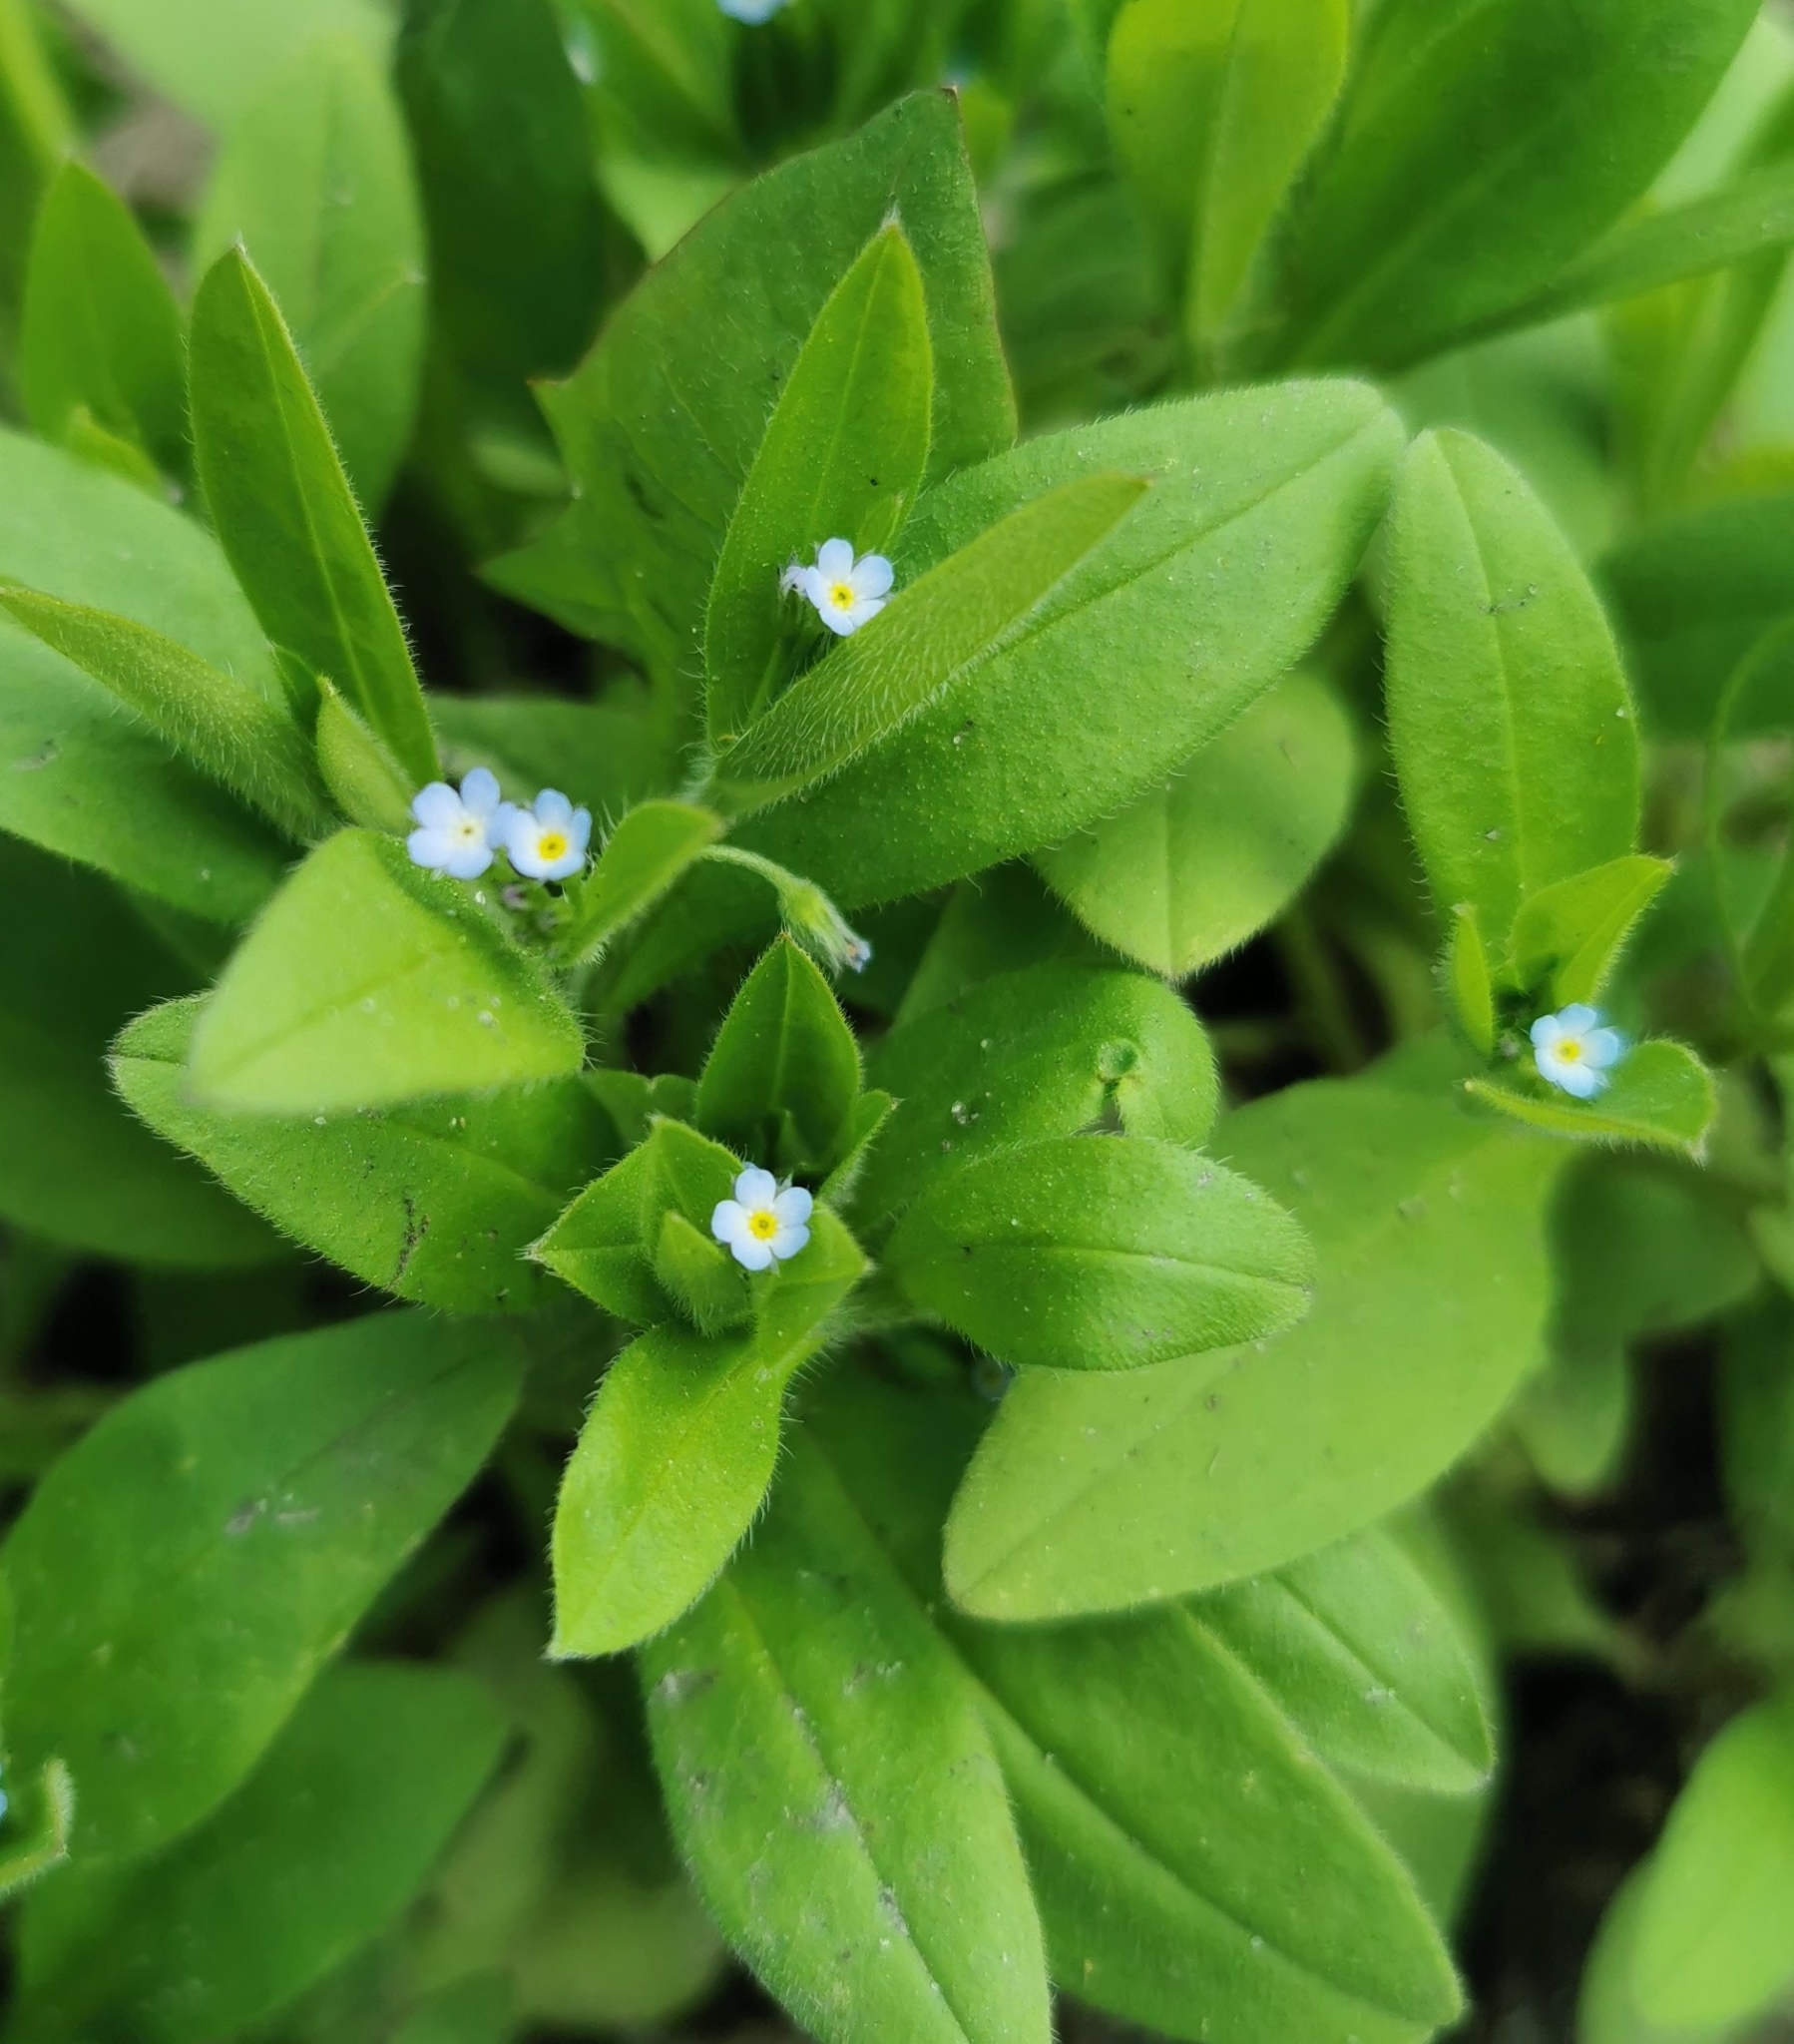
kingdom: Plantae
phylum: Tracheophyta
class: Magnoliopsida
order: Boraginales
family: Boraginaceae
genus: Myosotis
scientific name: Myosotis sparsiflora
